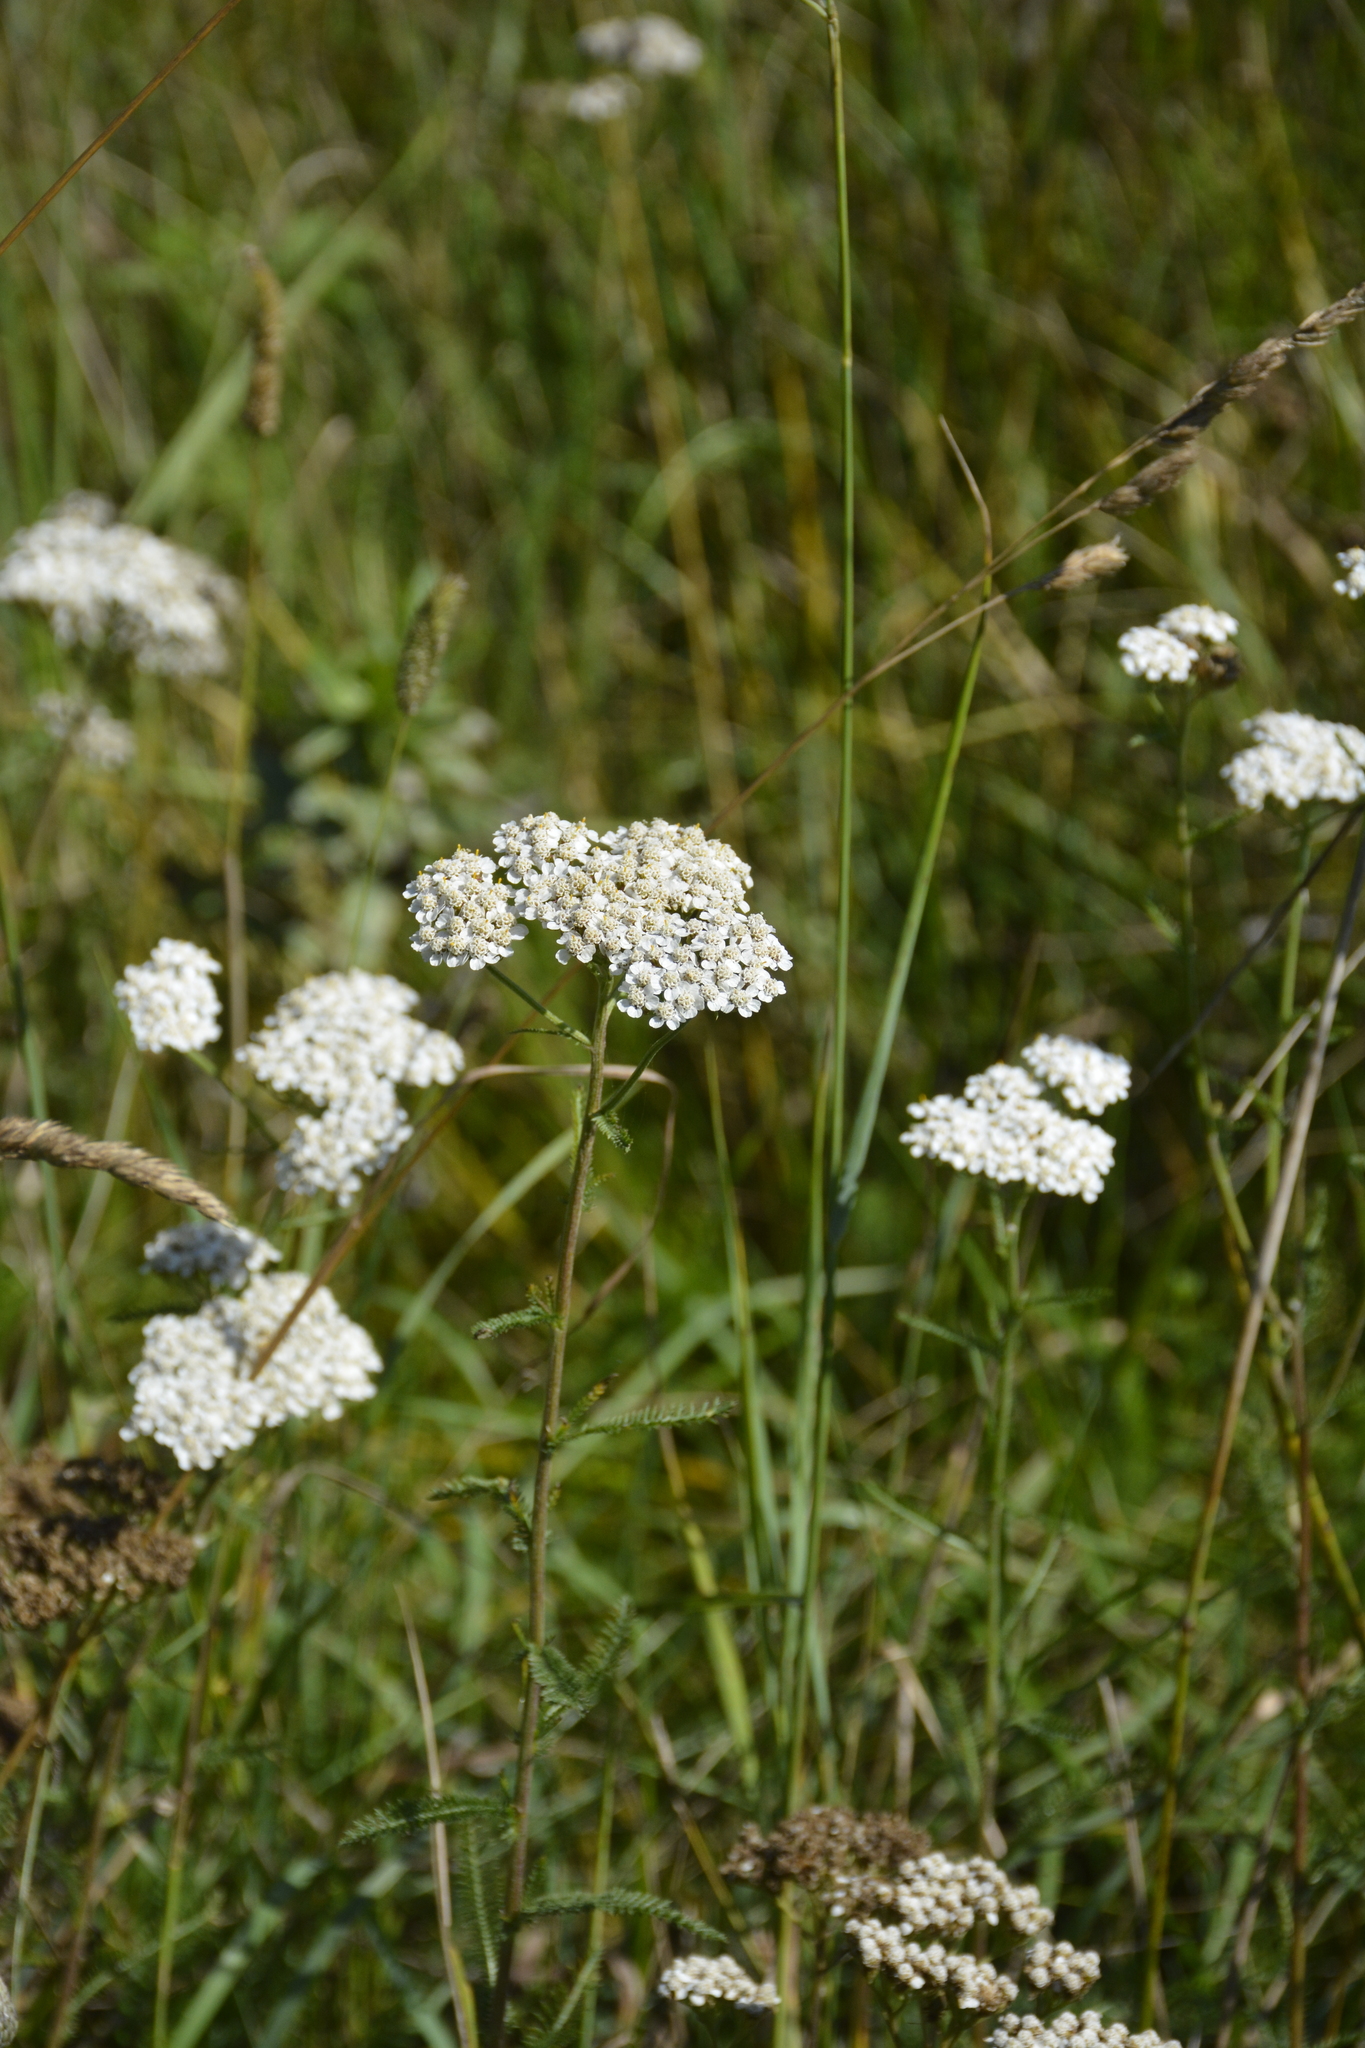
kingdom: Plantae
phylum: Tracheophyta
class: Magnoliopsida
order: Asterales
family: Asteraceae
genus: Achillea
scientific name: Achillea millefolium
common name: Yarrow
